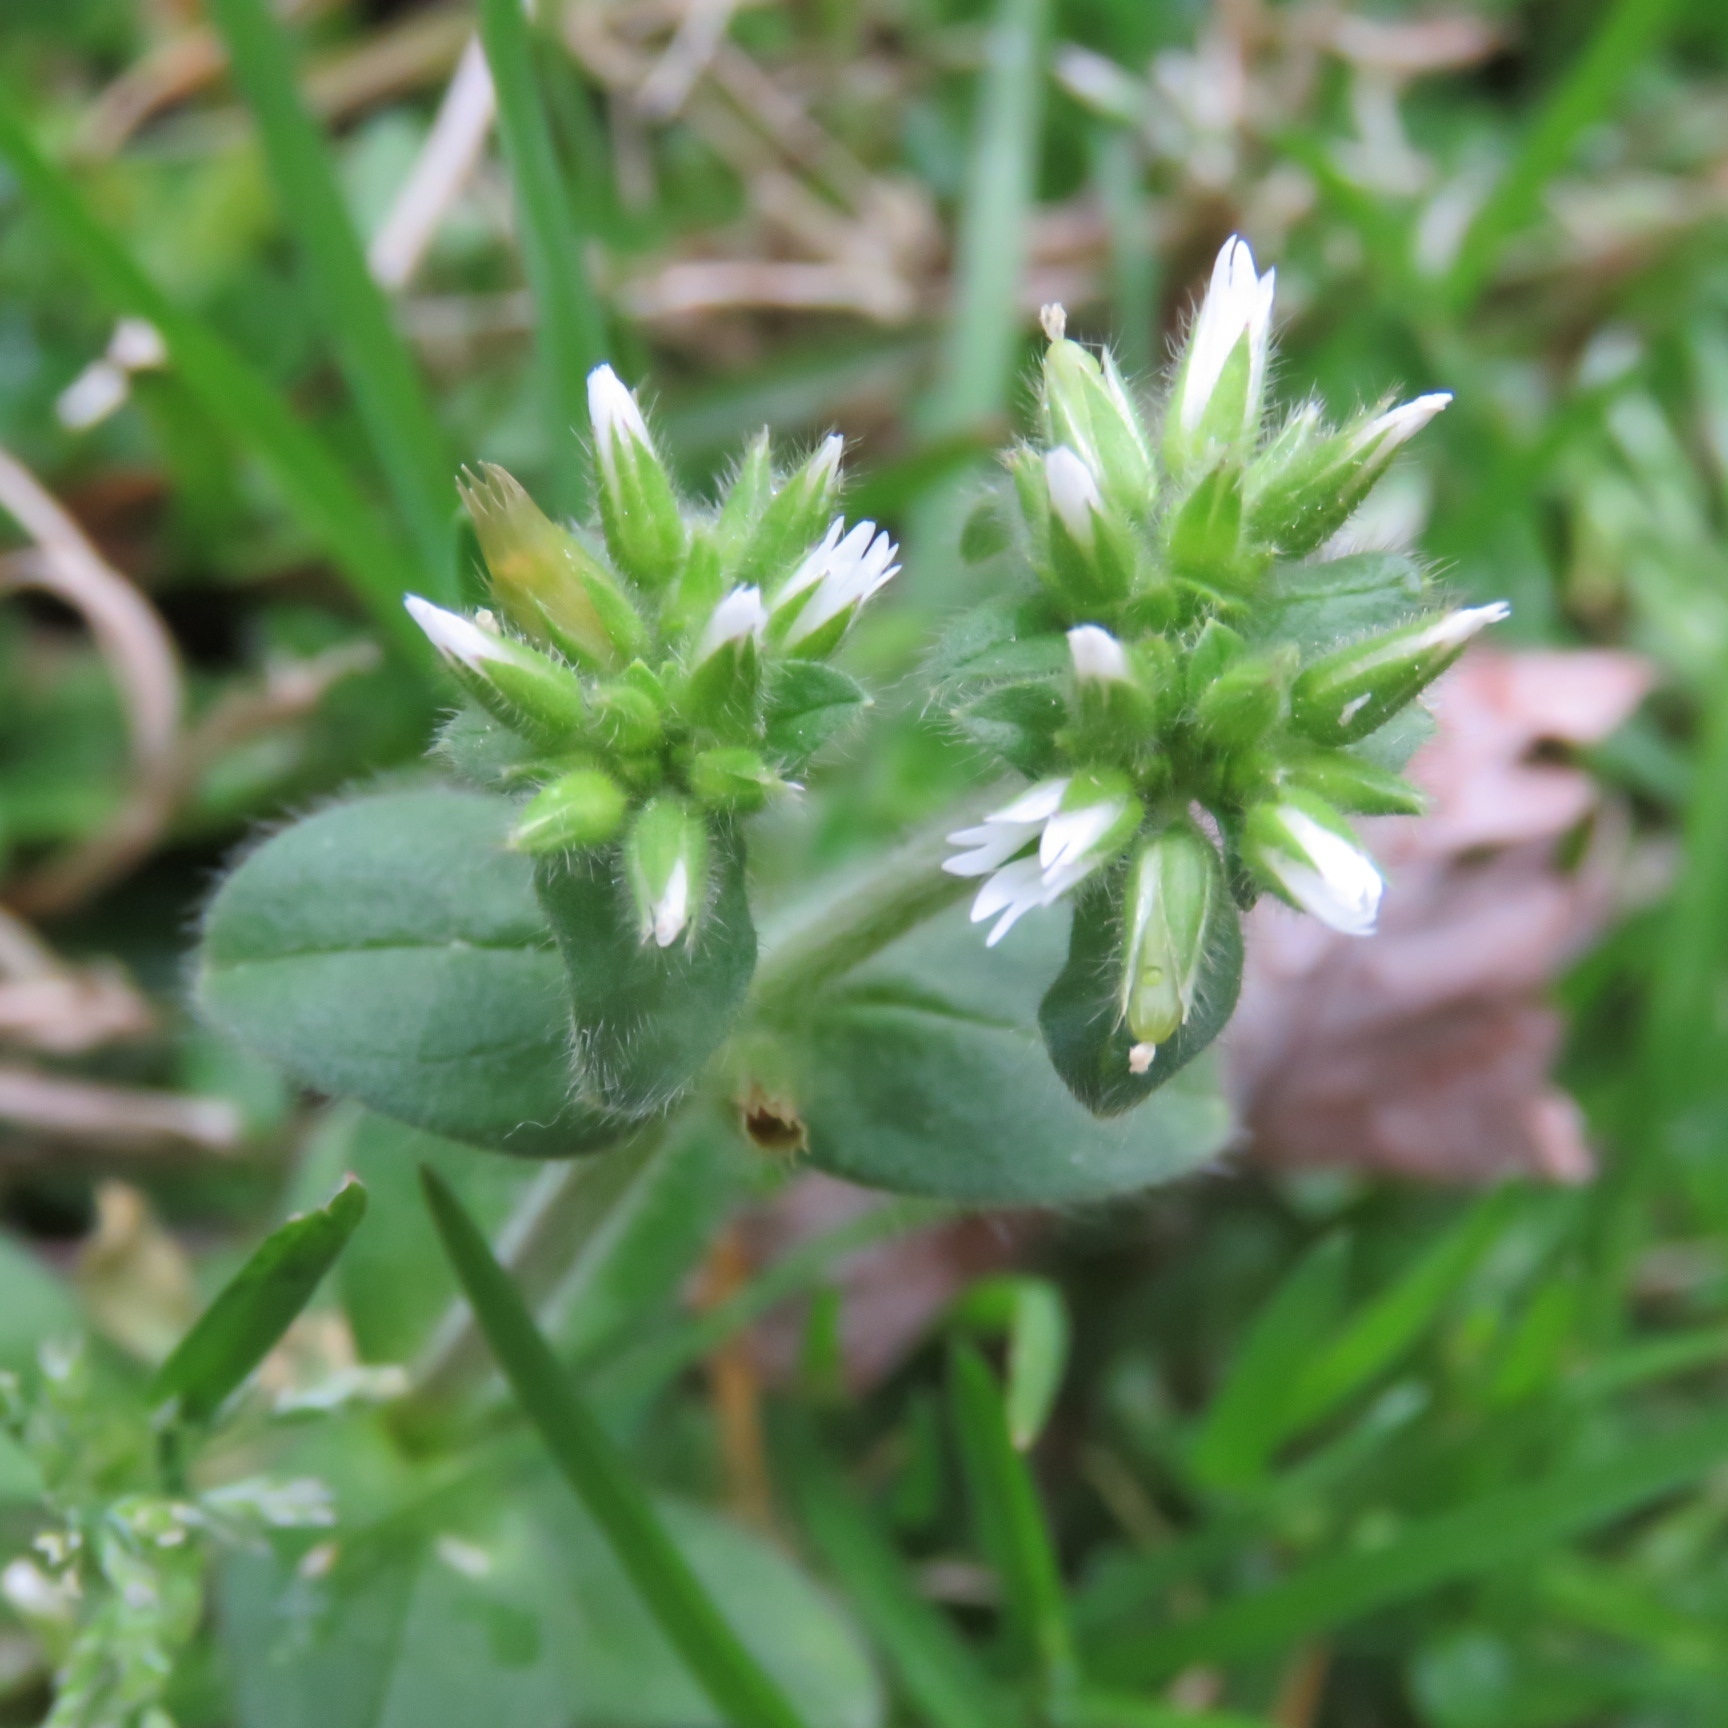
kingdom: Plantae
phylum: Tracheophyta
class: Magnoliopsida
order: Caryophyllales
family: Caryophyllaceae
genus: Cerastium
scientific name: Cerastium glomeratum
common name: Sticky chickweed
